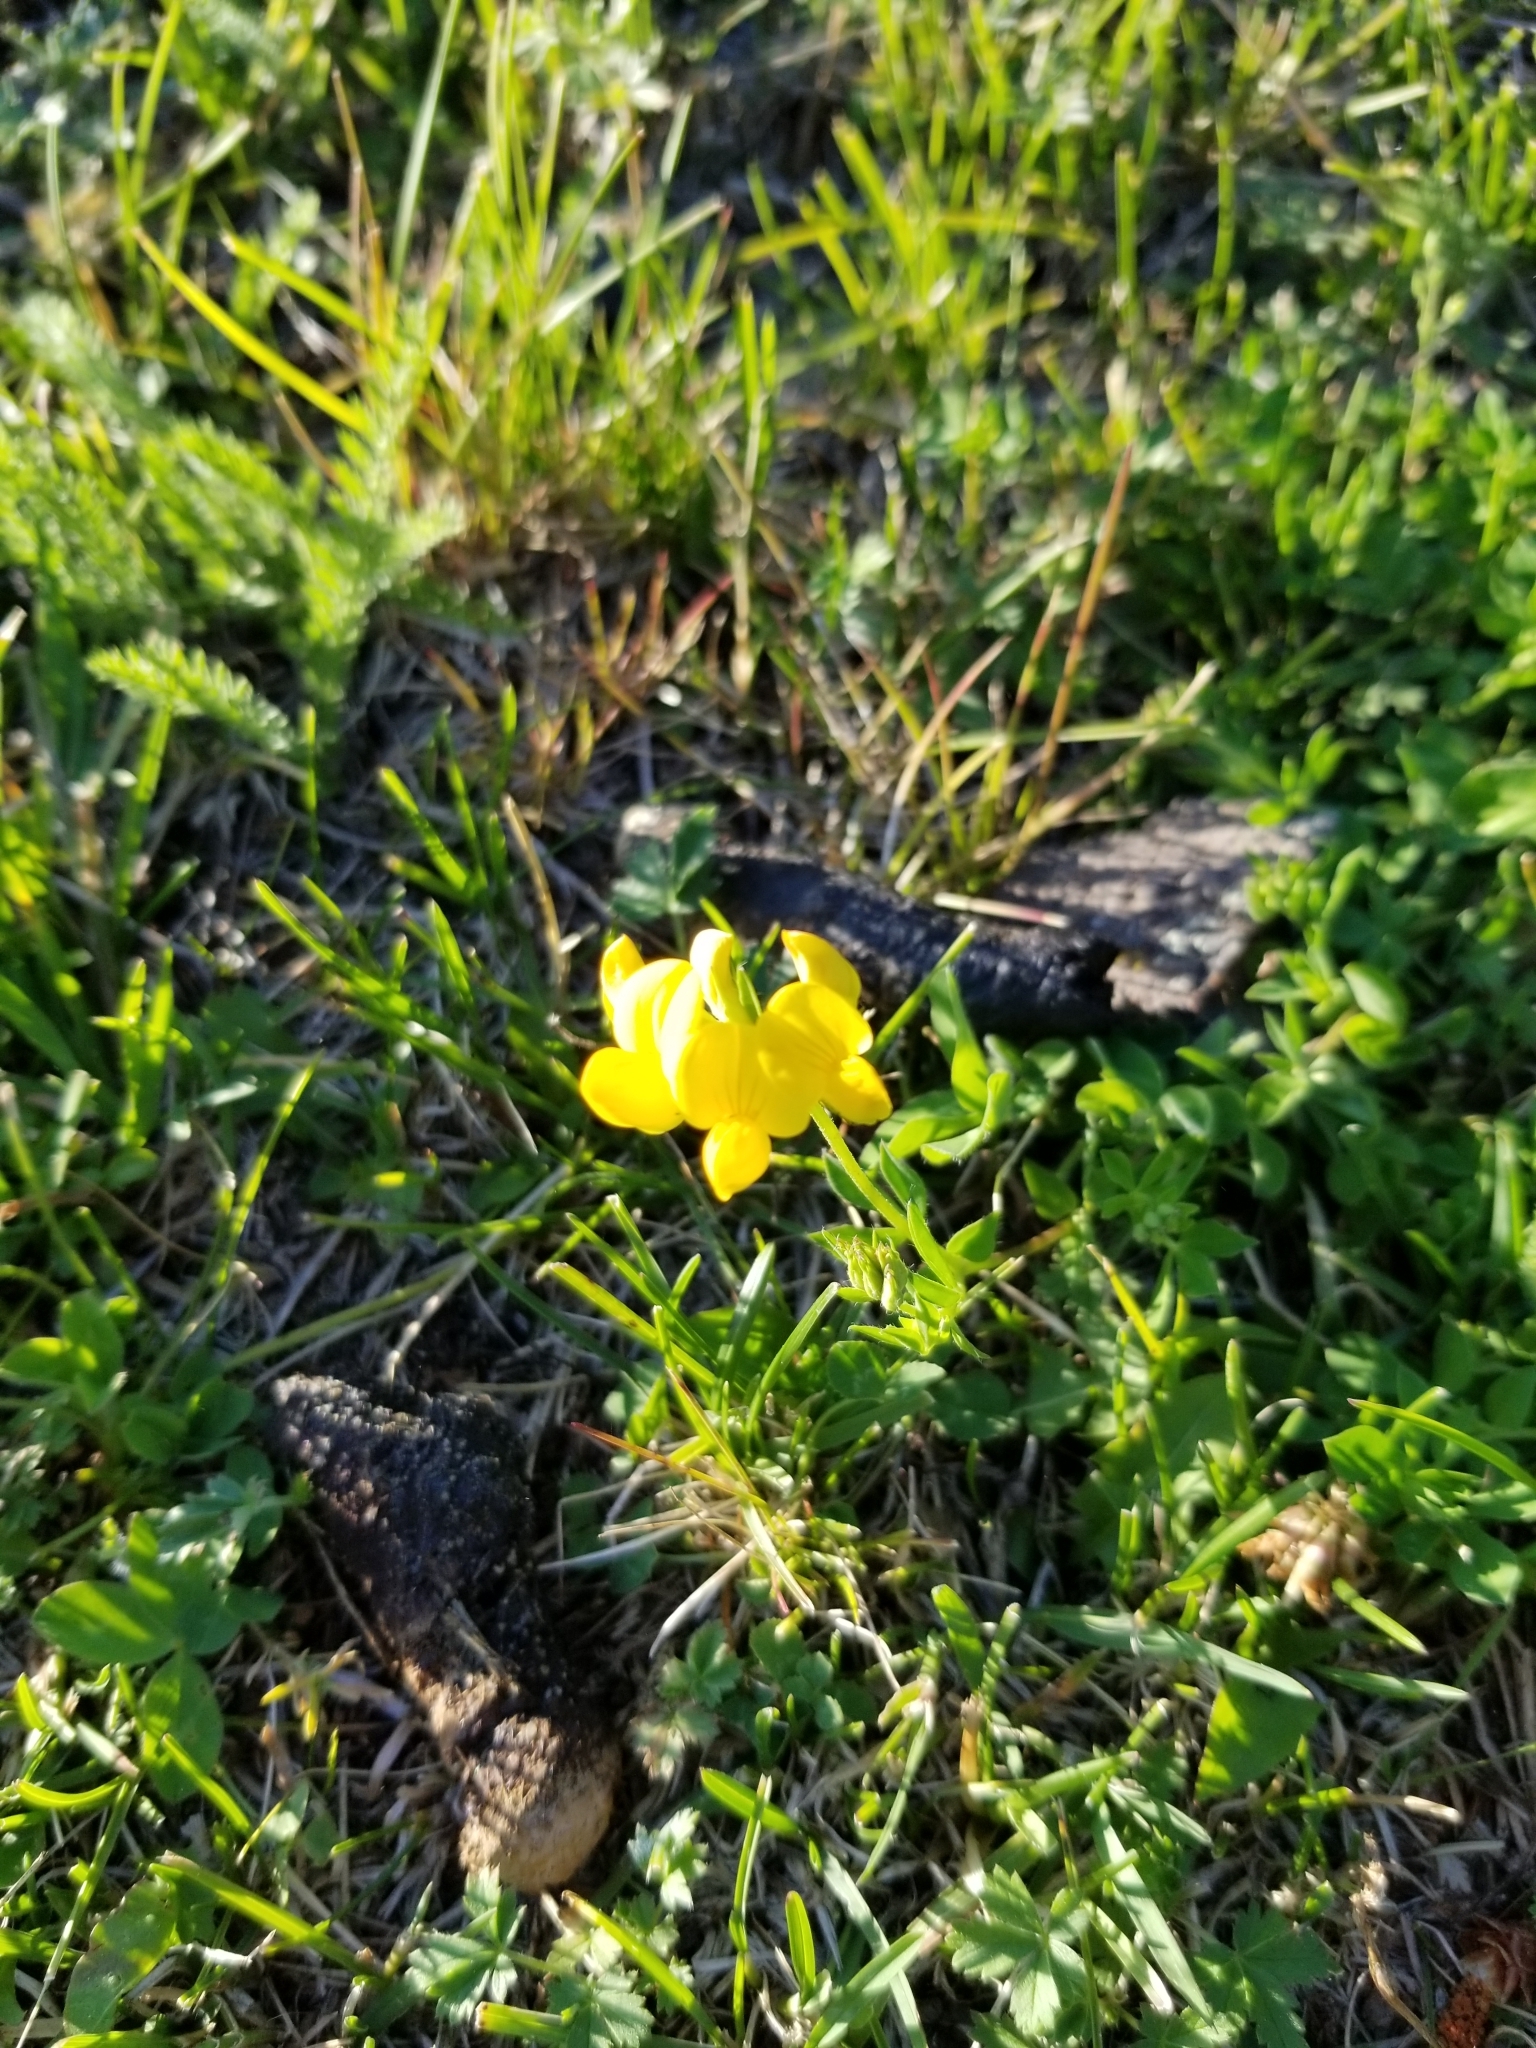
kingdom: Plantae
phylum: Tracheophyta
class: Magnoliopsida
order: Fabales
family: Fabaceae
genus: Lotus
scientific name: Lotus corniculatus
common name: Common bird's-foot-trefoil
